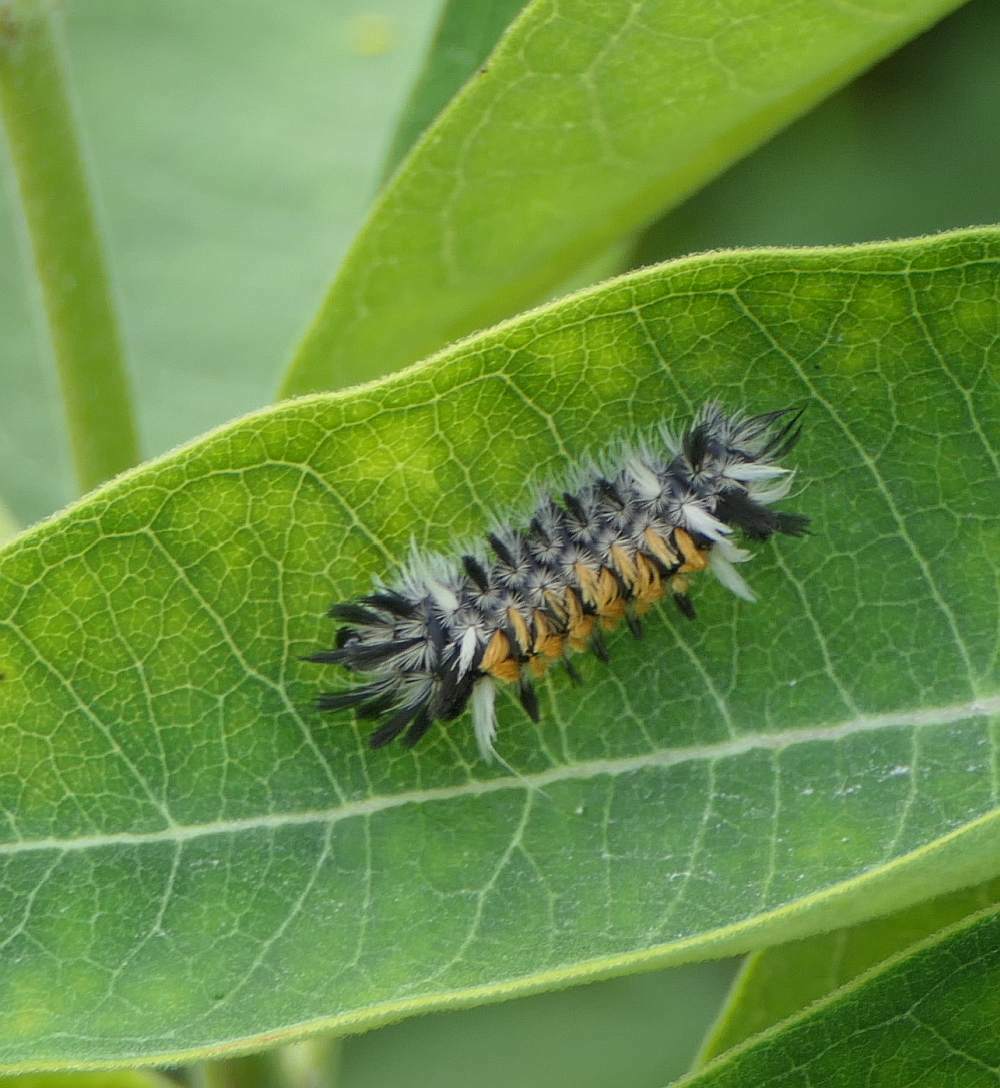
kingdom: Animalia
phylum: Arthropoda
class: Insecta
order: Lepidoptera
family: Erebidae
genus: Euchaetes
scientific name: Euchaetes egle
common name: Milkweed tussock moth
